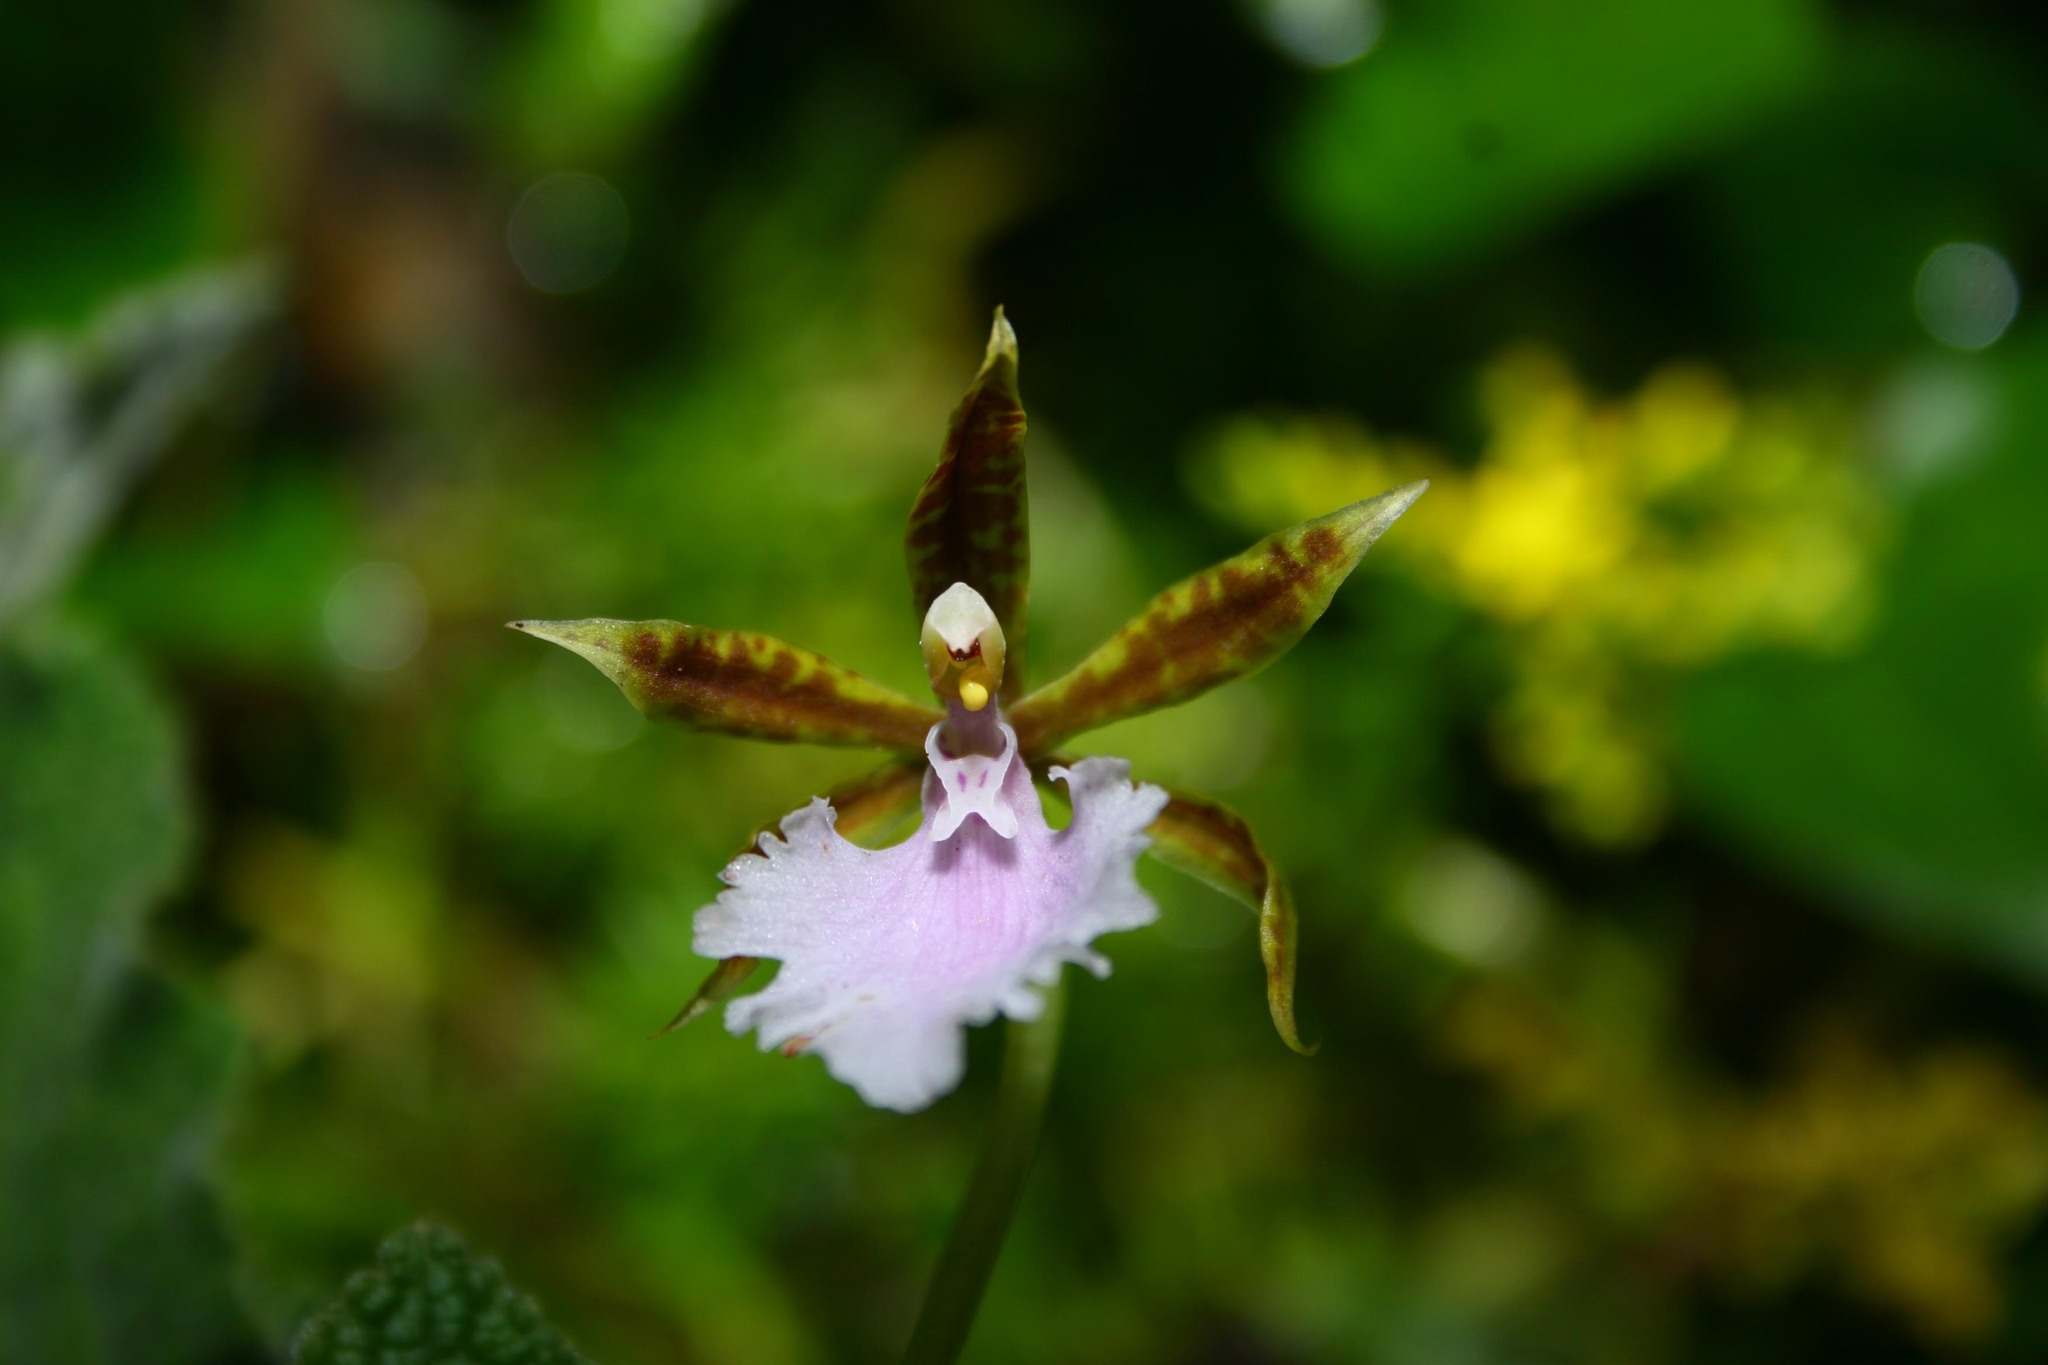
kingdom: Plantae
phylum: Tracheophyta
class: Liliopsida
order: Asparagales
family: Orchidaceae
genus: Rhynchostele
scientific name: Rhynchostele stellata
